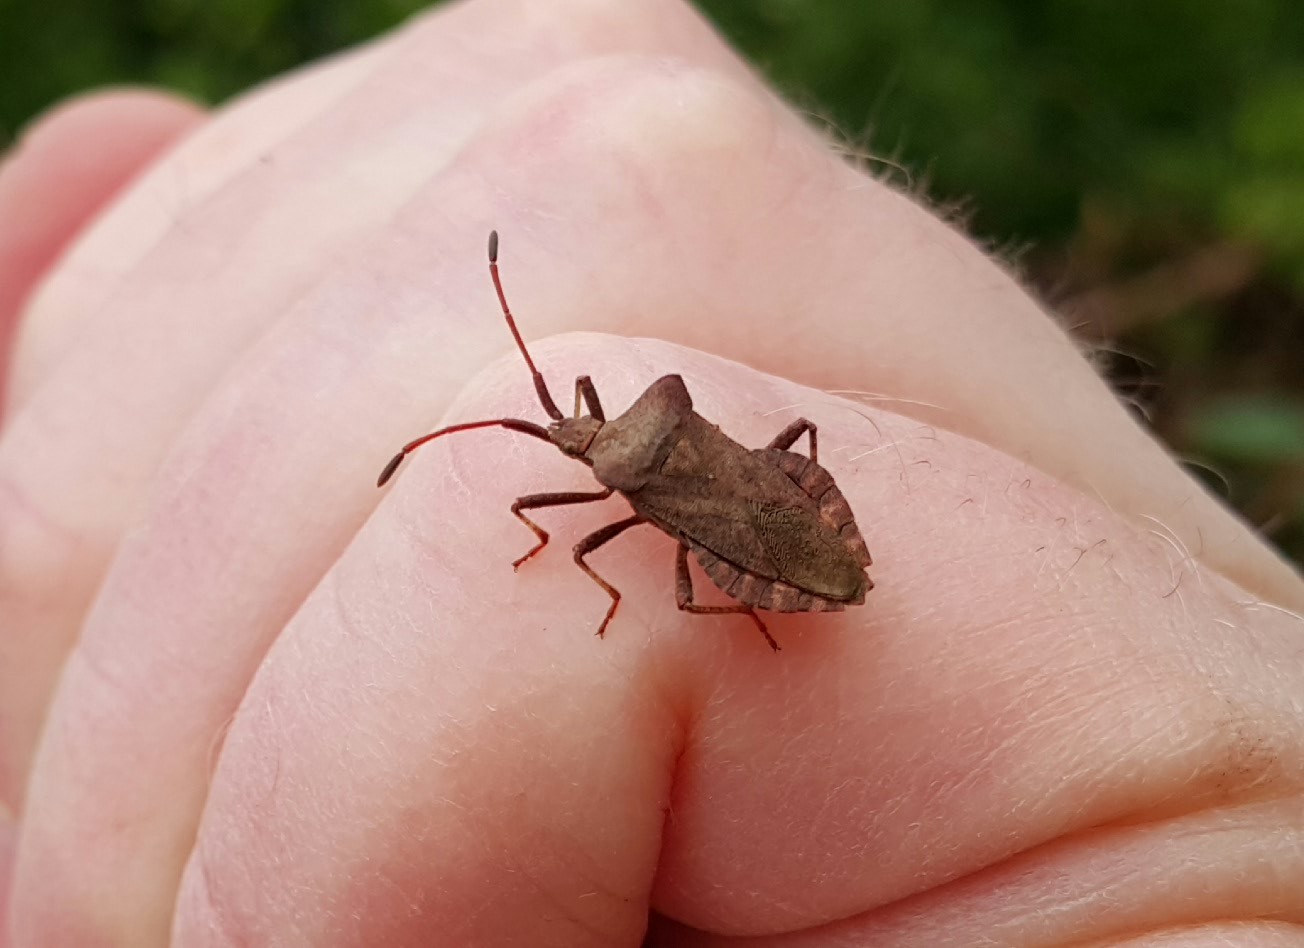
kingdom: Animalia
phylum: Arthropoda
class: Insecta
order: Hemiptera
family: Coreidae
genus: Coreus
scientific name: Coreus marginatus
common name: Dock bug
